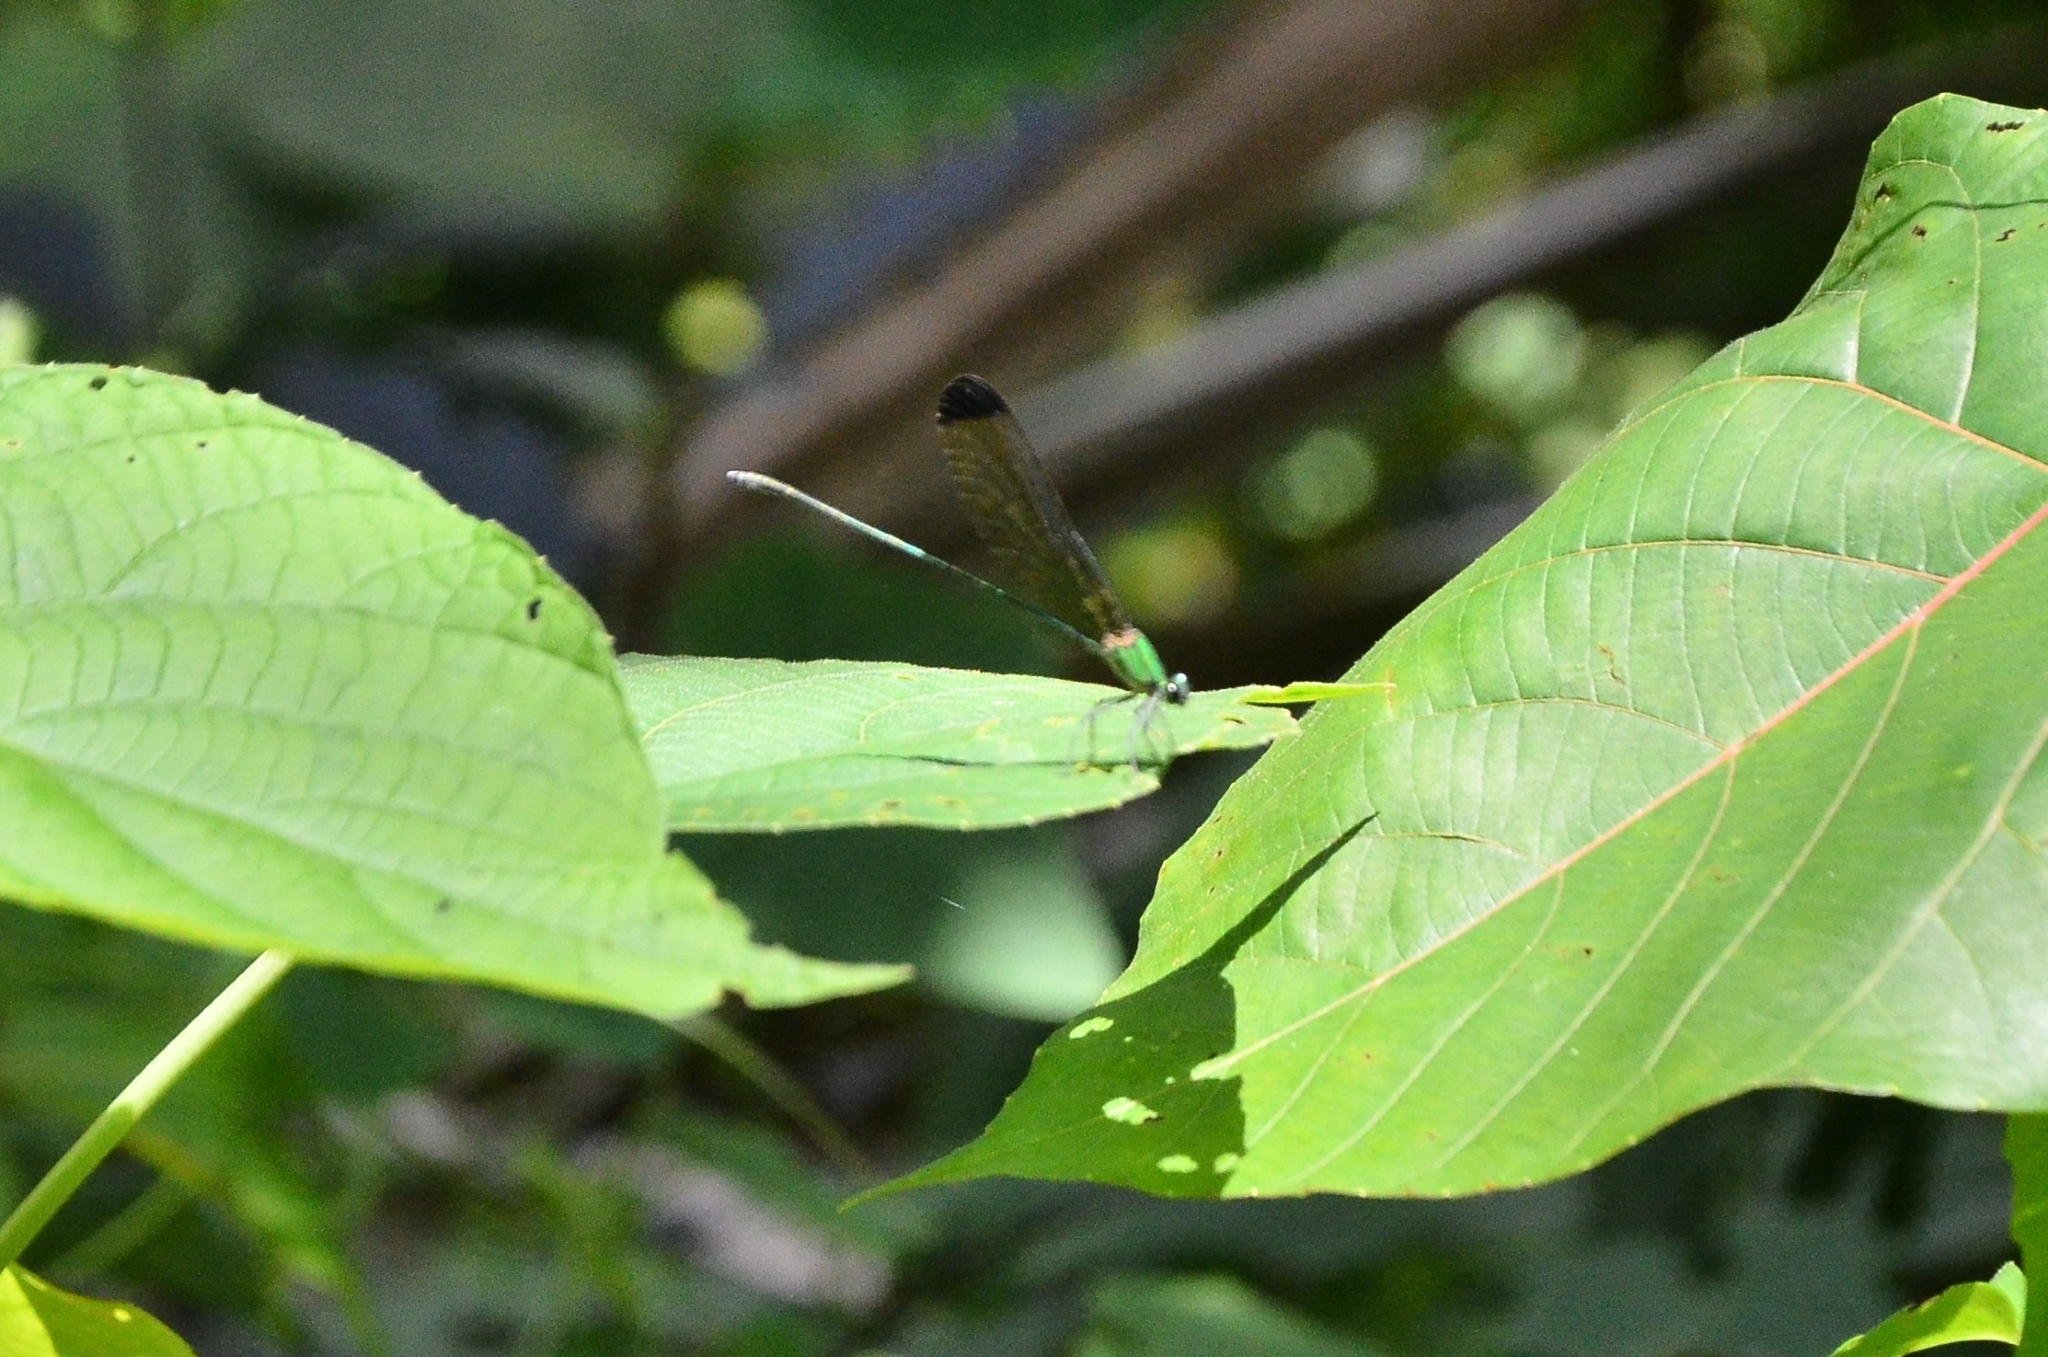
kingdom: Animalia
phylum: Arthropoda
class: Insecta
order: Odonata
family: Calopterygidae
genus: Vestalis
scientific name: Vestalis apicalis
